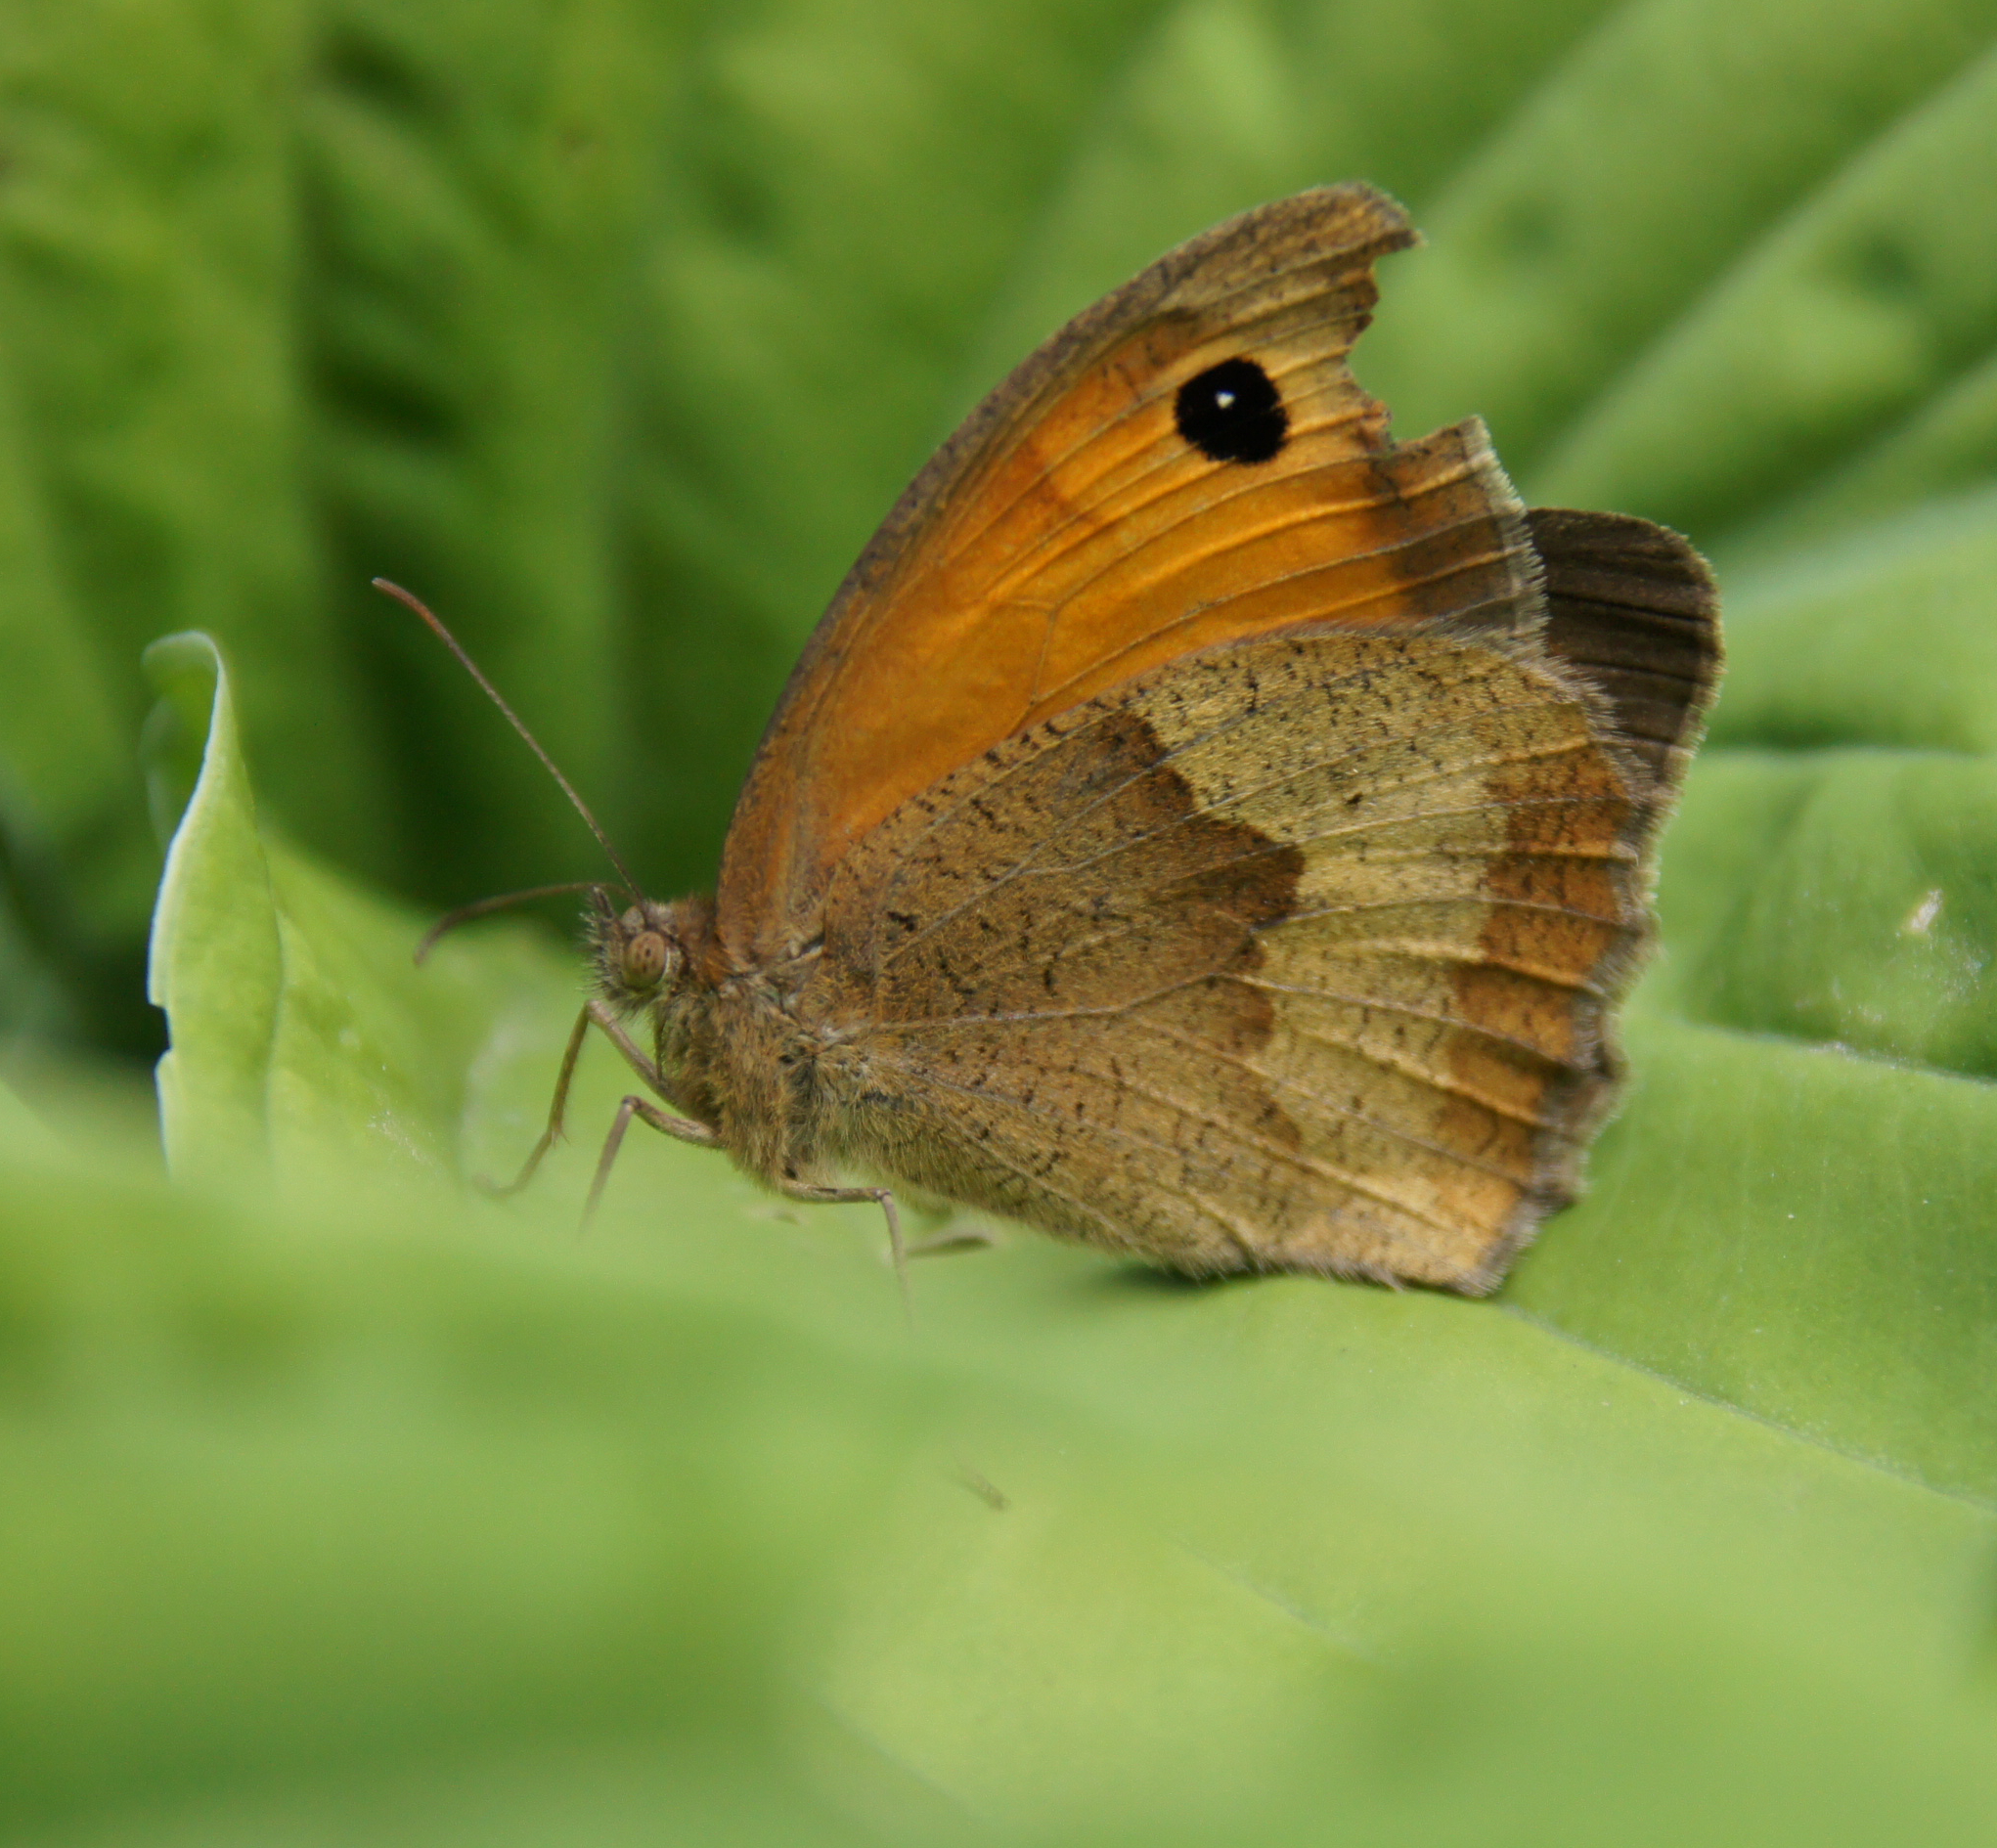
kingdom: Animalia
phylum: Arthropoda
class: Insecta
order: Lepidoptera
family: Nymphalidae
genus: Maniola
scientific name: Maniola jurtina
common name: Meadow brown
